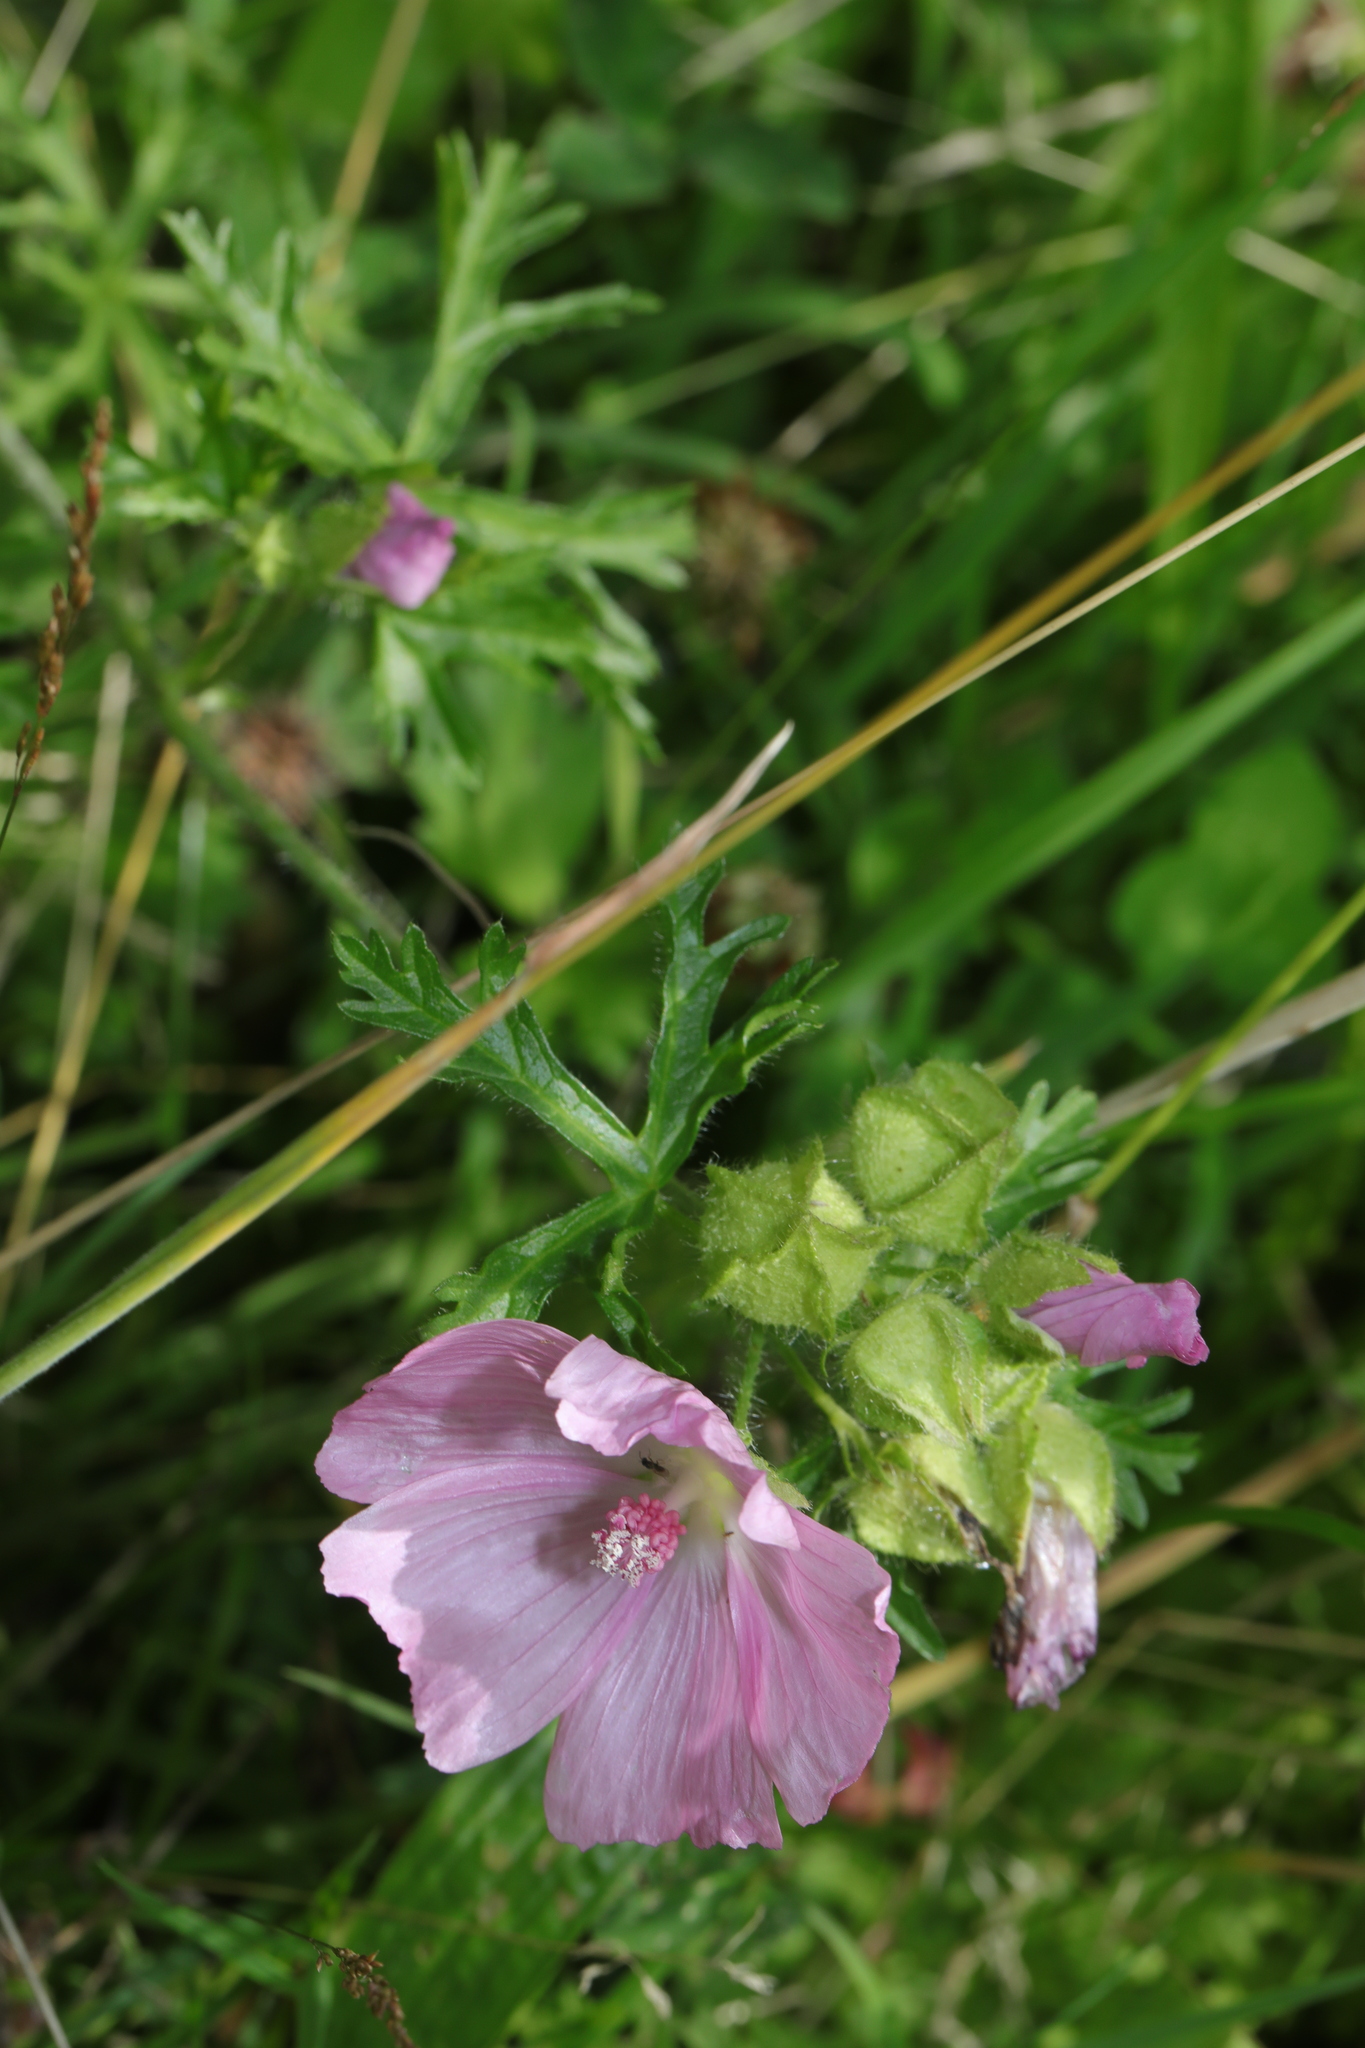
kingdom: Plantae
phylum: Tracheophyta
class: Magnoliopsida
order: Malvales
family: Malvaceae
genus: Malva
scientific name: Malva moschata
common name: Musk mallow
